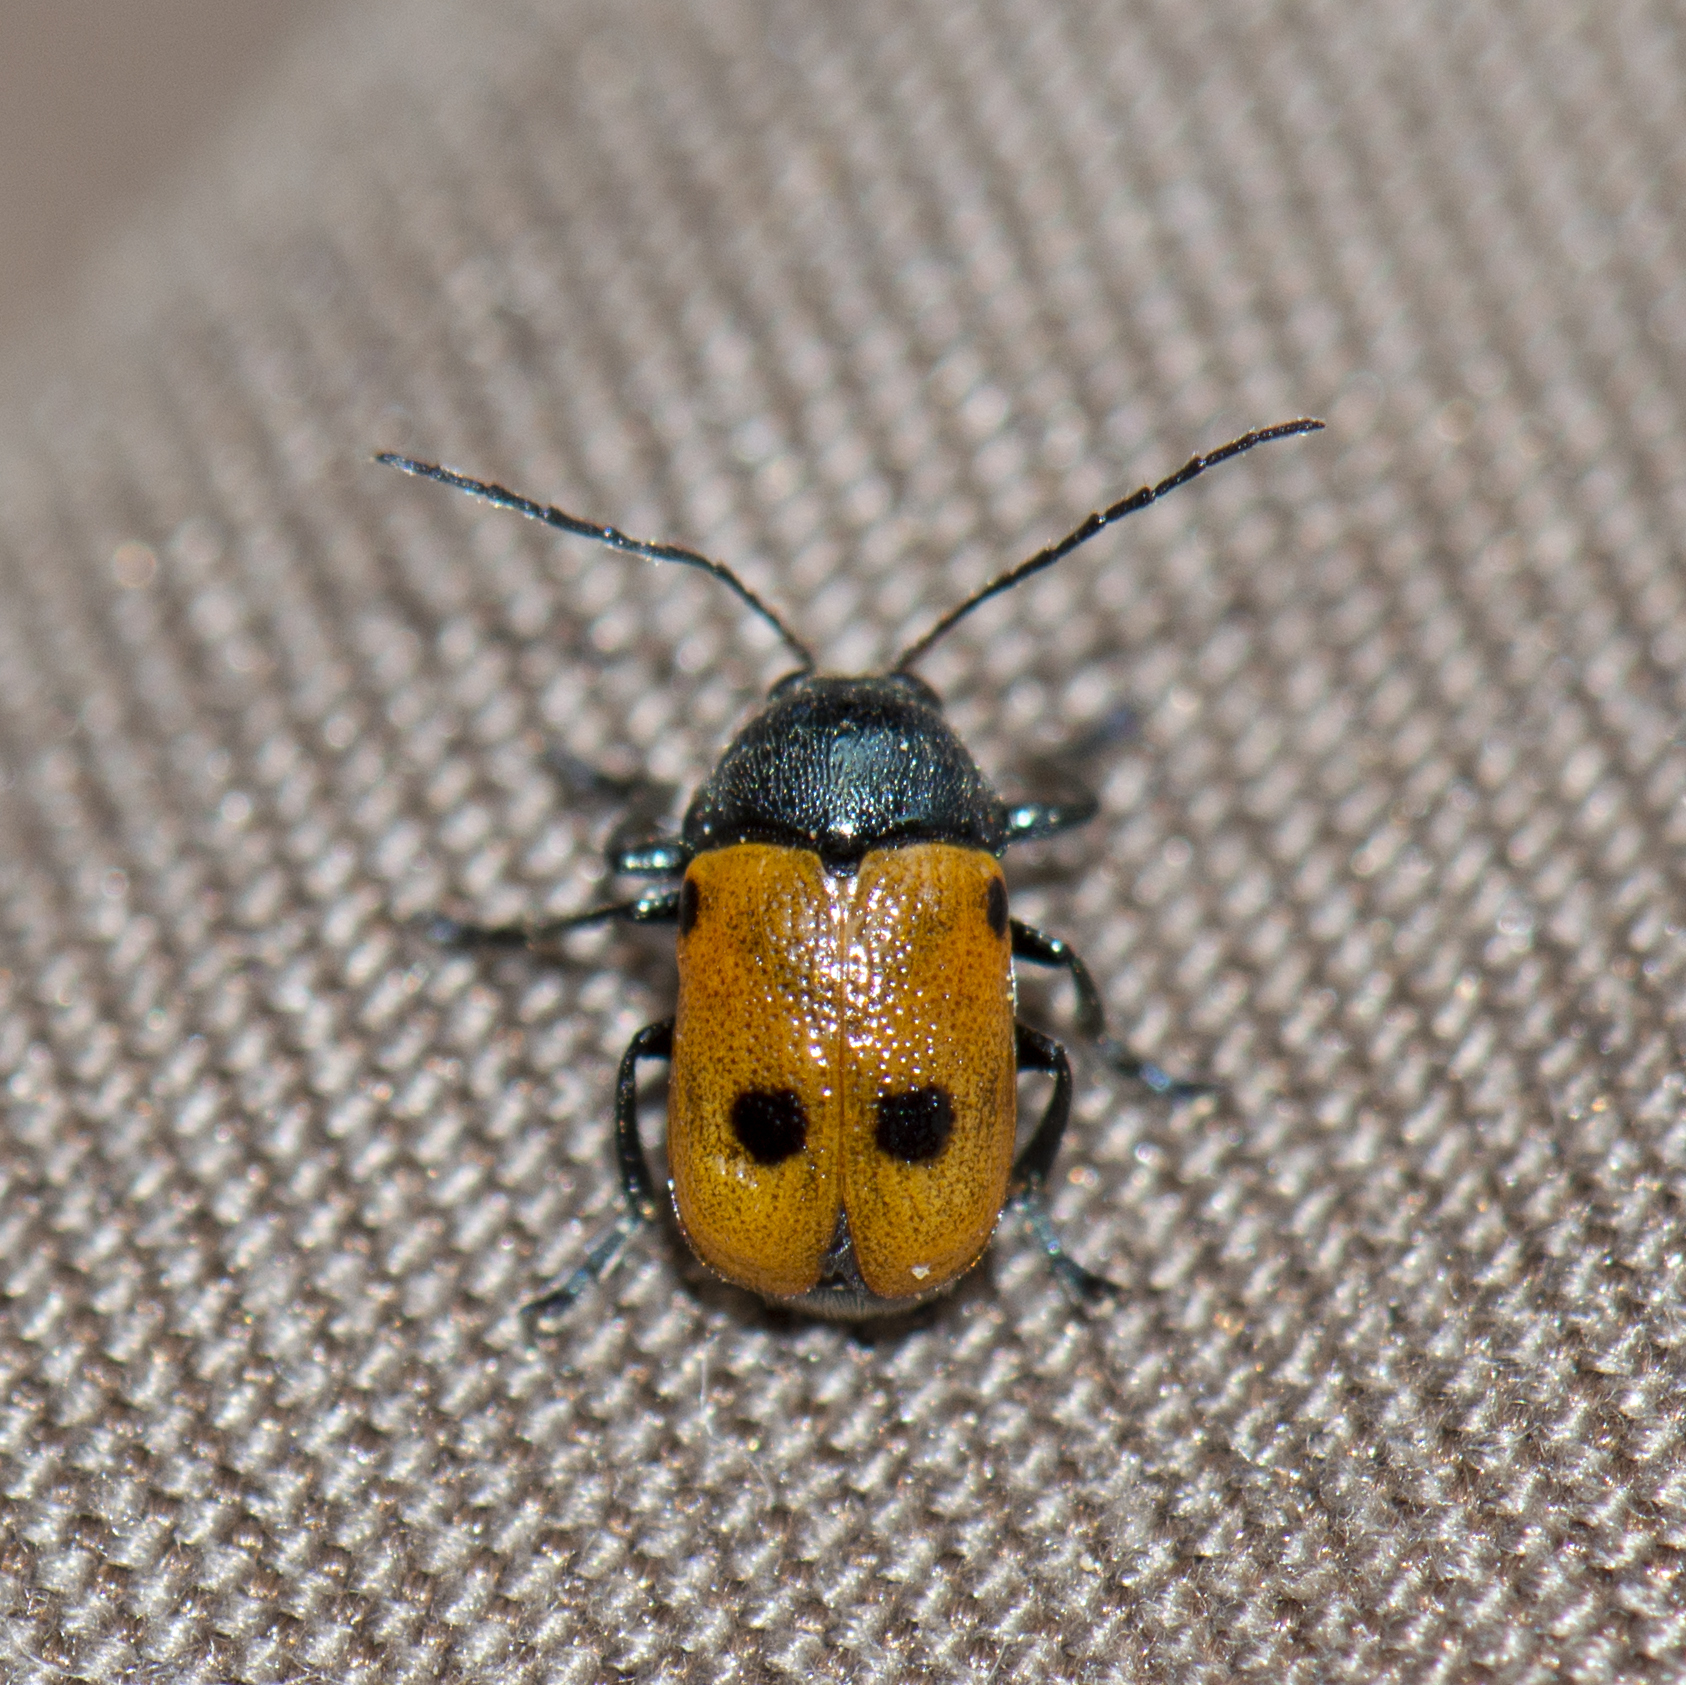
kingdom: Animalia
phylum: Arthropoda
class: Insecta
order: Coleoptera
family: Chrysomelidae
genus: Cryptocephalus
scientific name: Cryptocephalus ilicis
